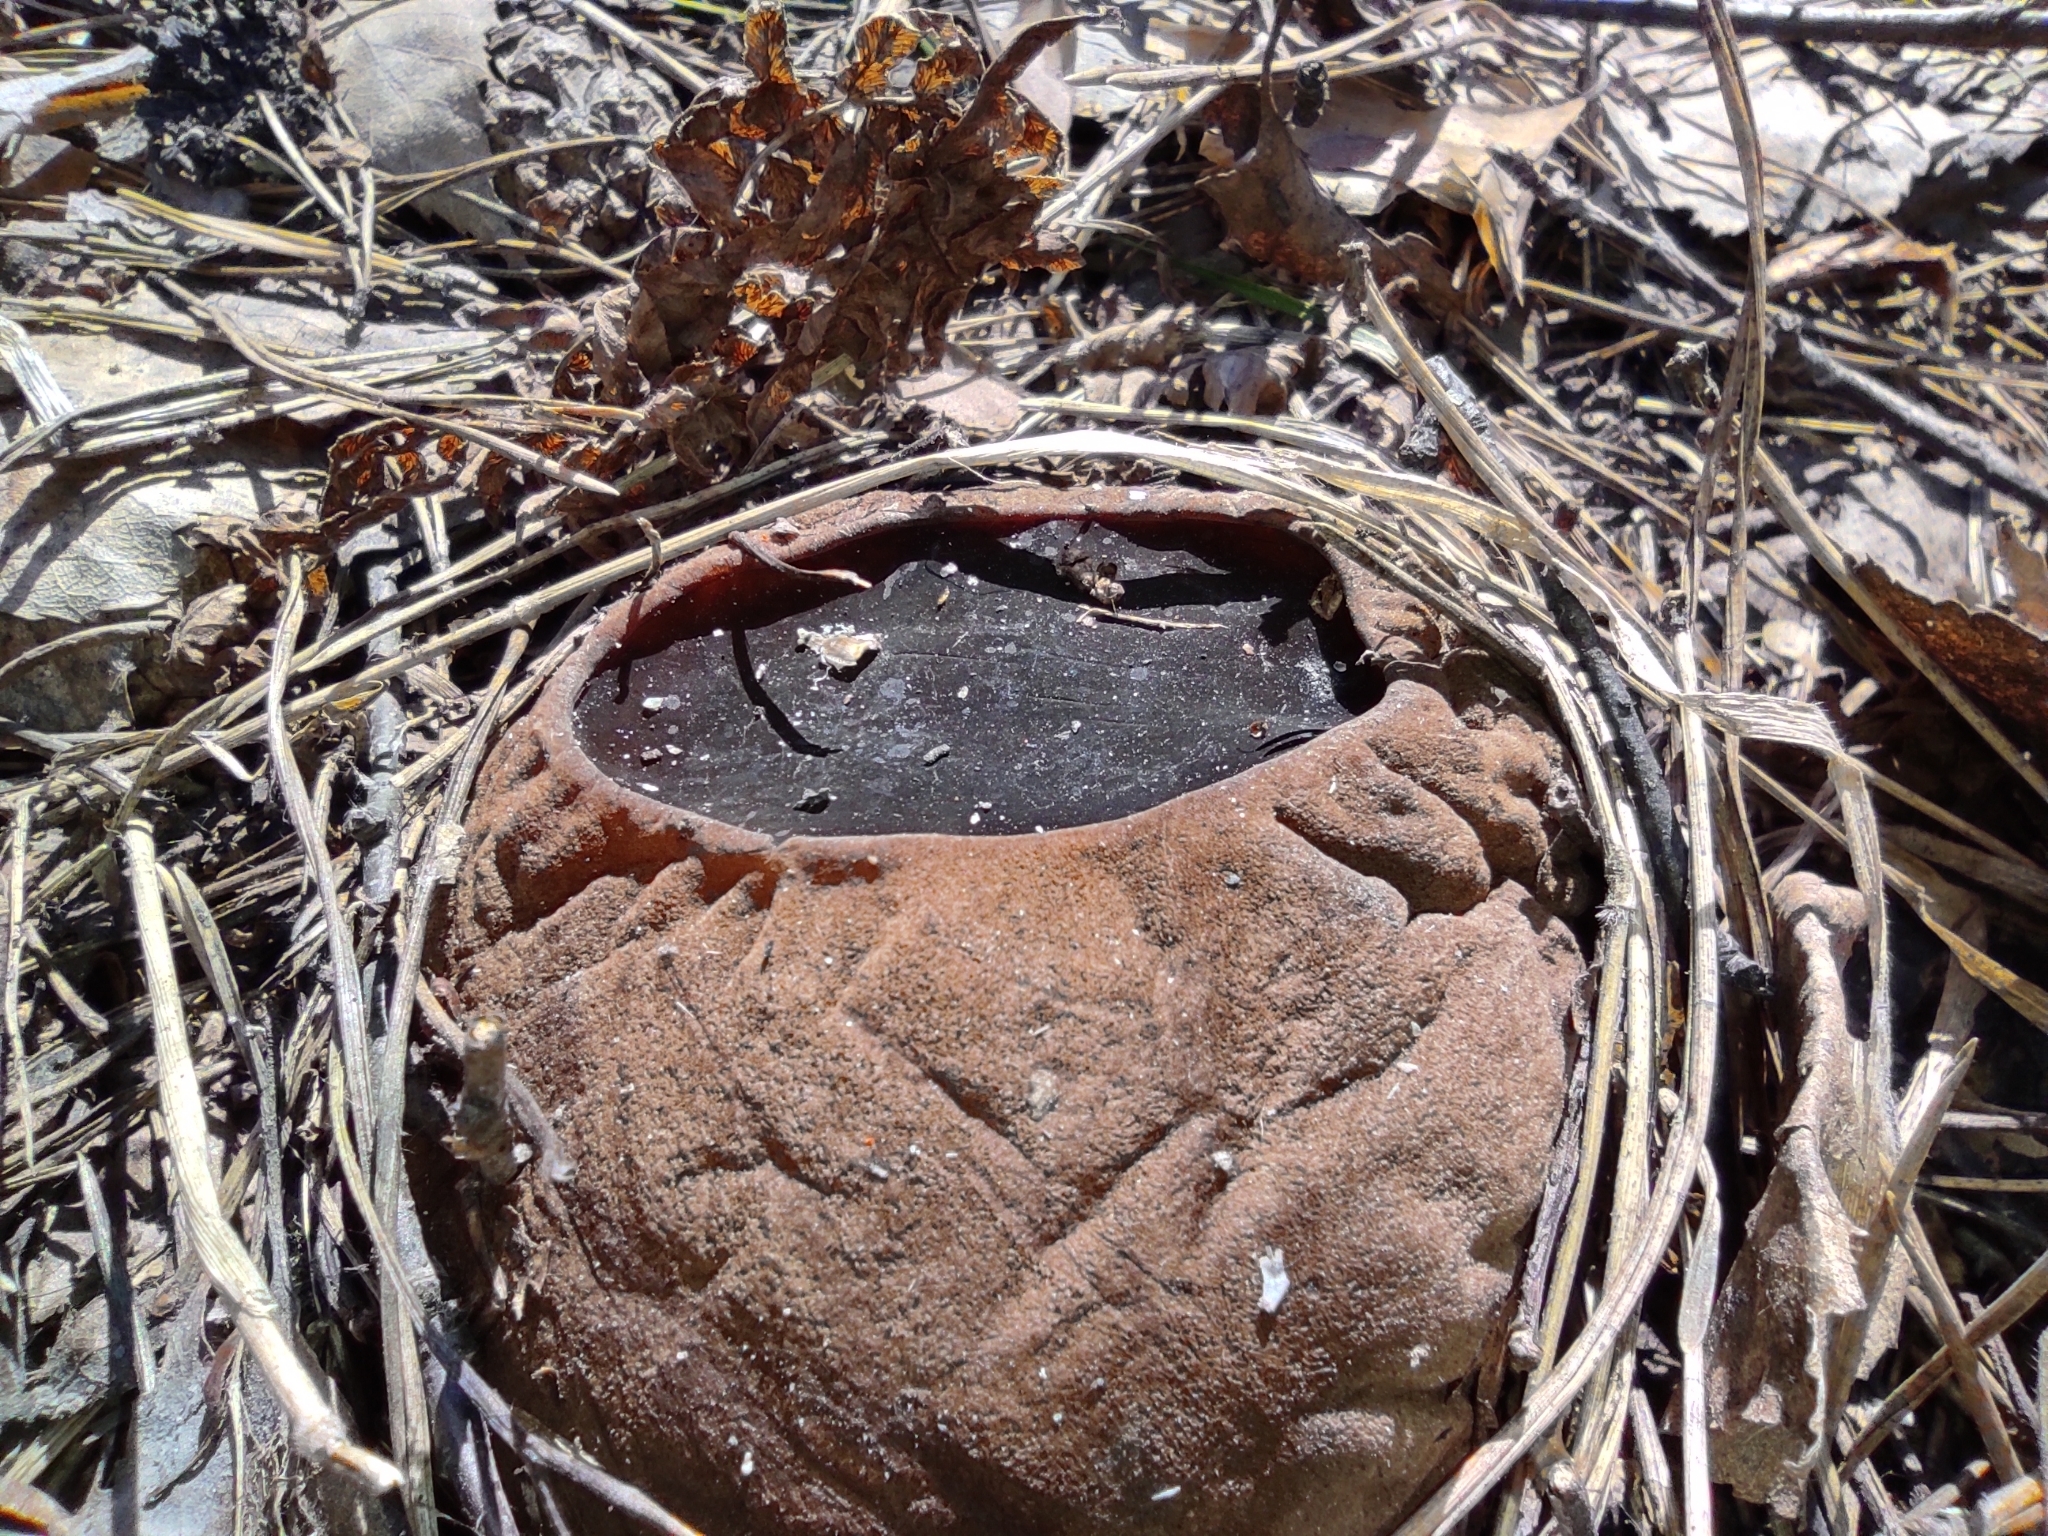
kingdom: Fungi
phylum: Ascomycota
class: Pezizomycetes
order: Pezizales
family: Sarcosomataceae
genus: Sarcosoma
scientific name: Sarcosoma globosum
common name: Charred-pancake cup
